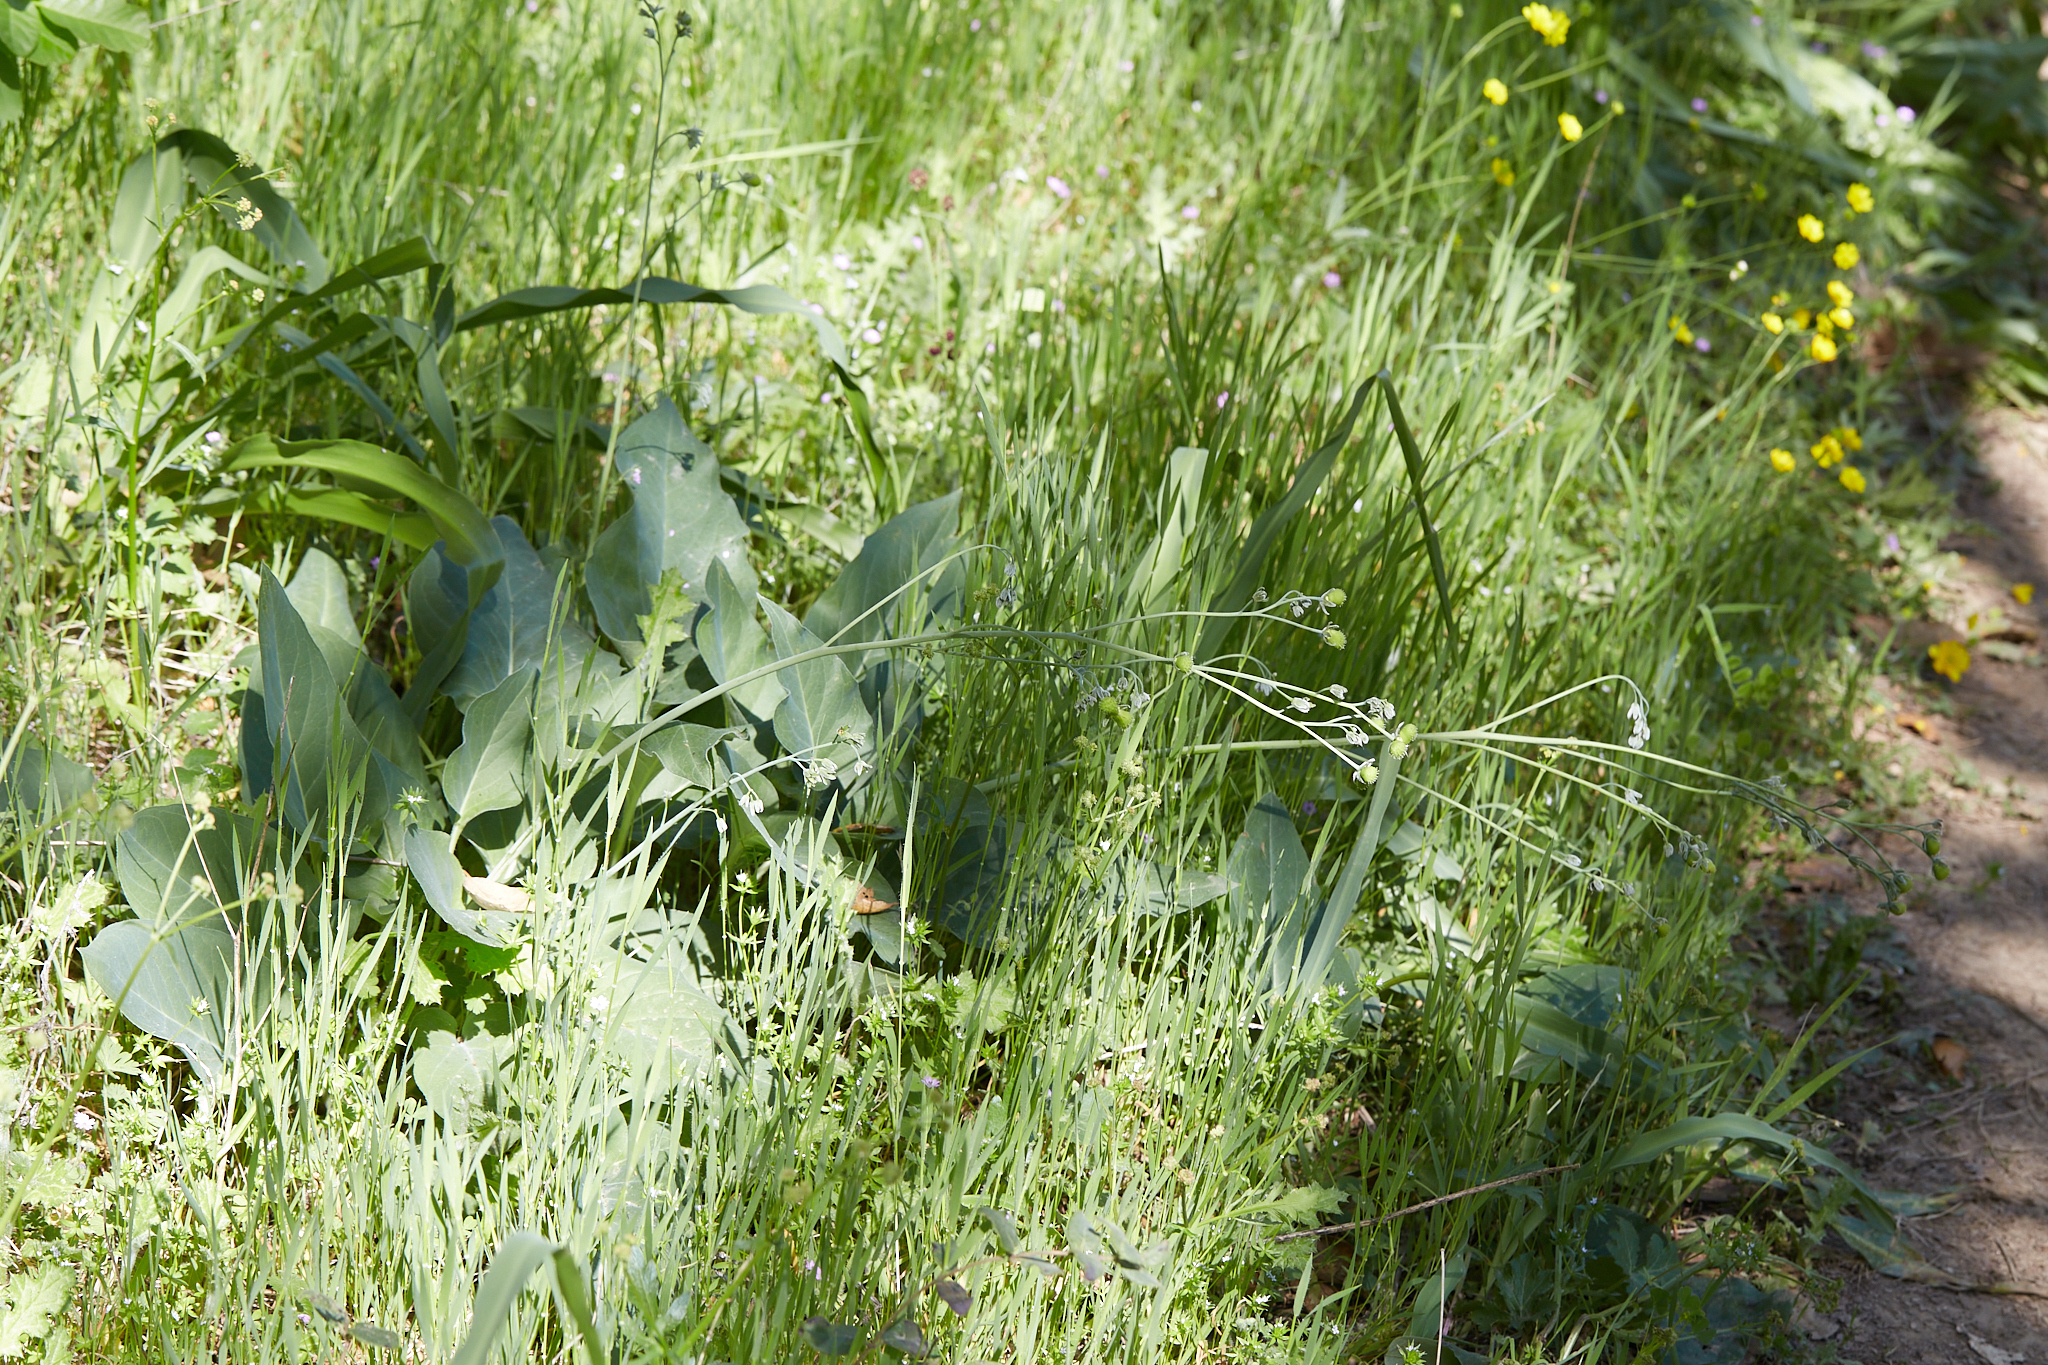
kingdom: Plantae
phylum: Tracheophyta
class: Magnoliopsida
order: Boraginales
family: Boraginaceae
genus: Adelinia
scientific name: Adelinia grande
